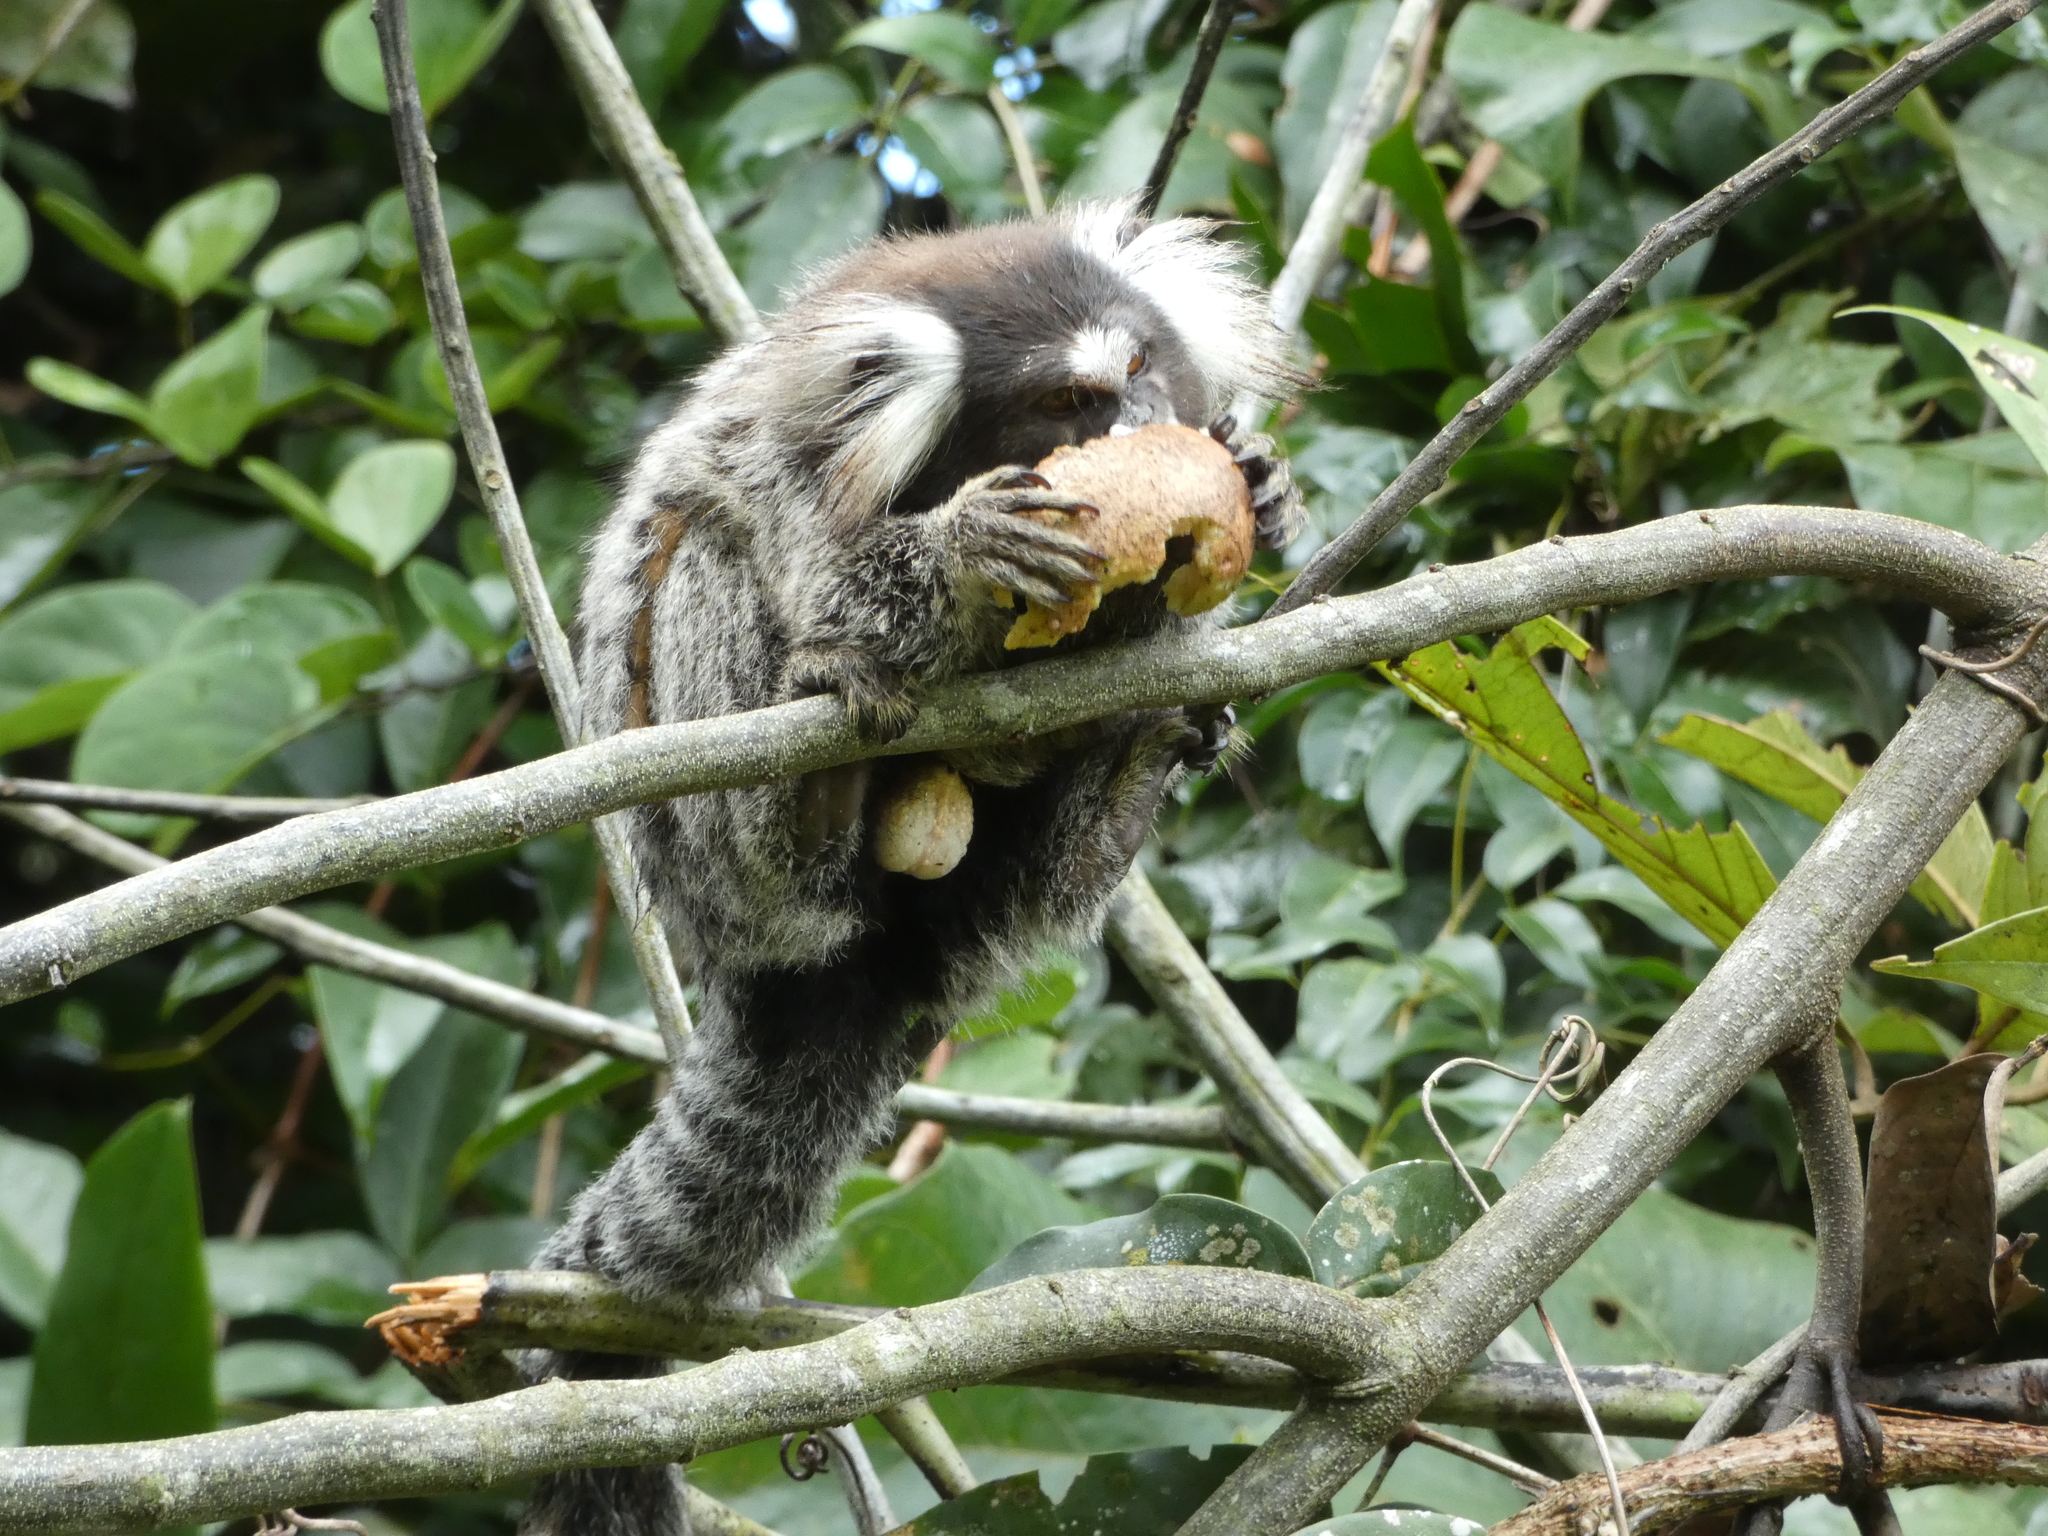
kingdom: Animalia
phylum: Chordata
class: Mammalia
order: Primates
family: Callitrichidae
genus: Callithrix
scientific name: Callithrix jacchus
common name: Common marmoset
